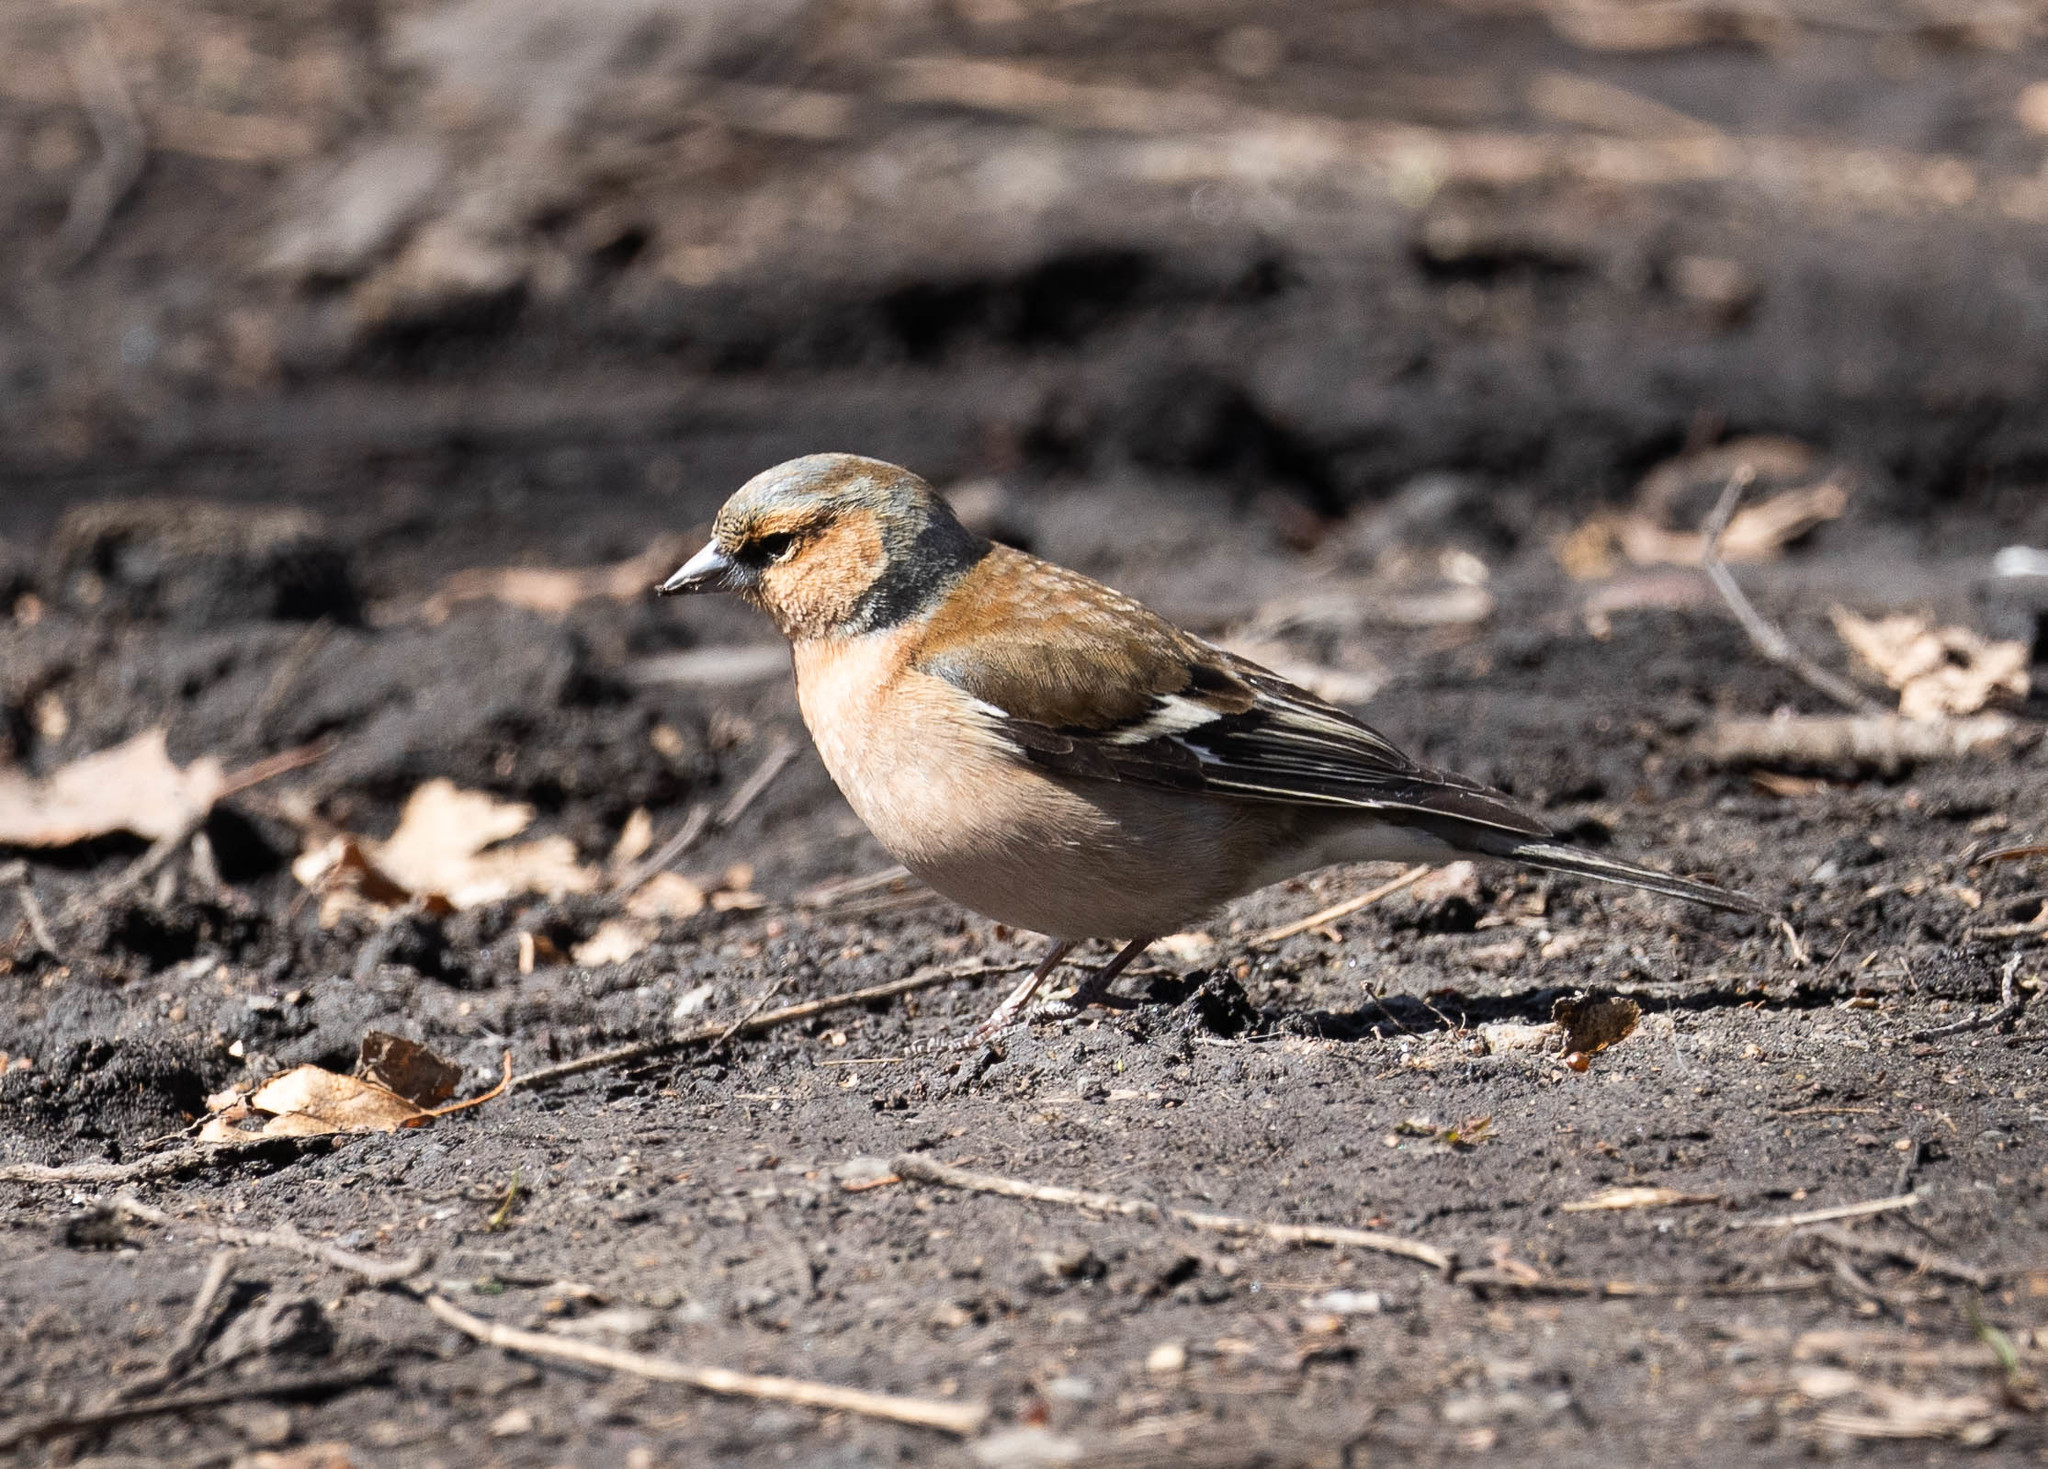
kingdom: Animalia
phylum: Chordata
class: Aves
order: Passeriformes
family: Fringillidae
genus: Fringilla
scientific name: Fringilla coelebs
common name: Common chaffinch
